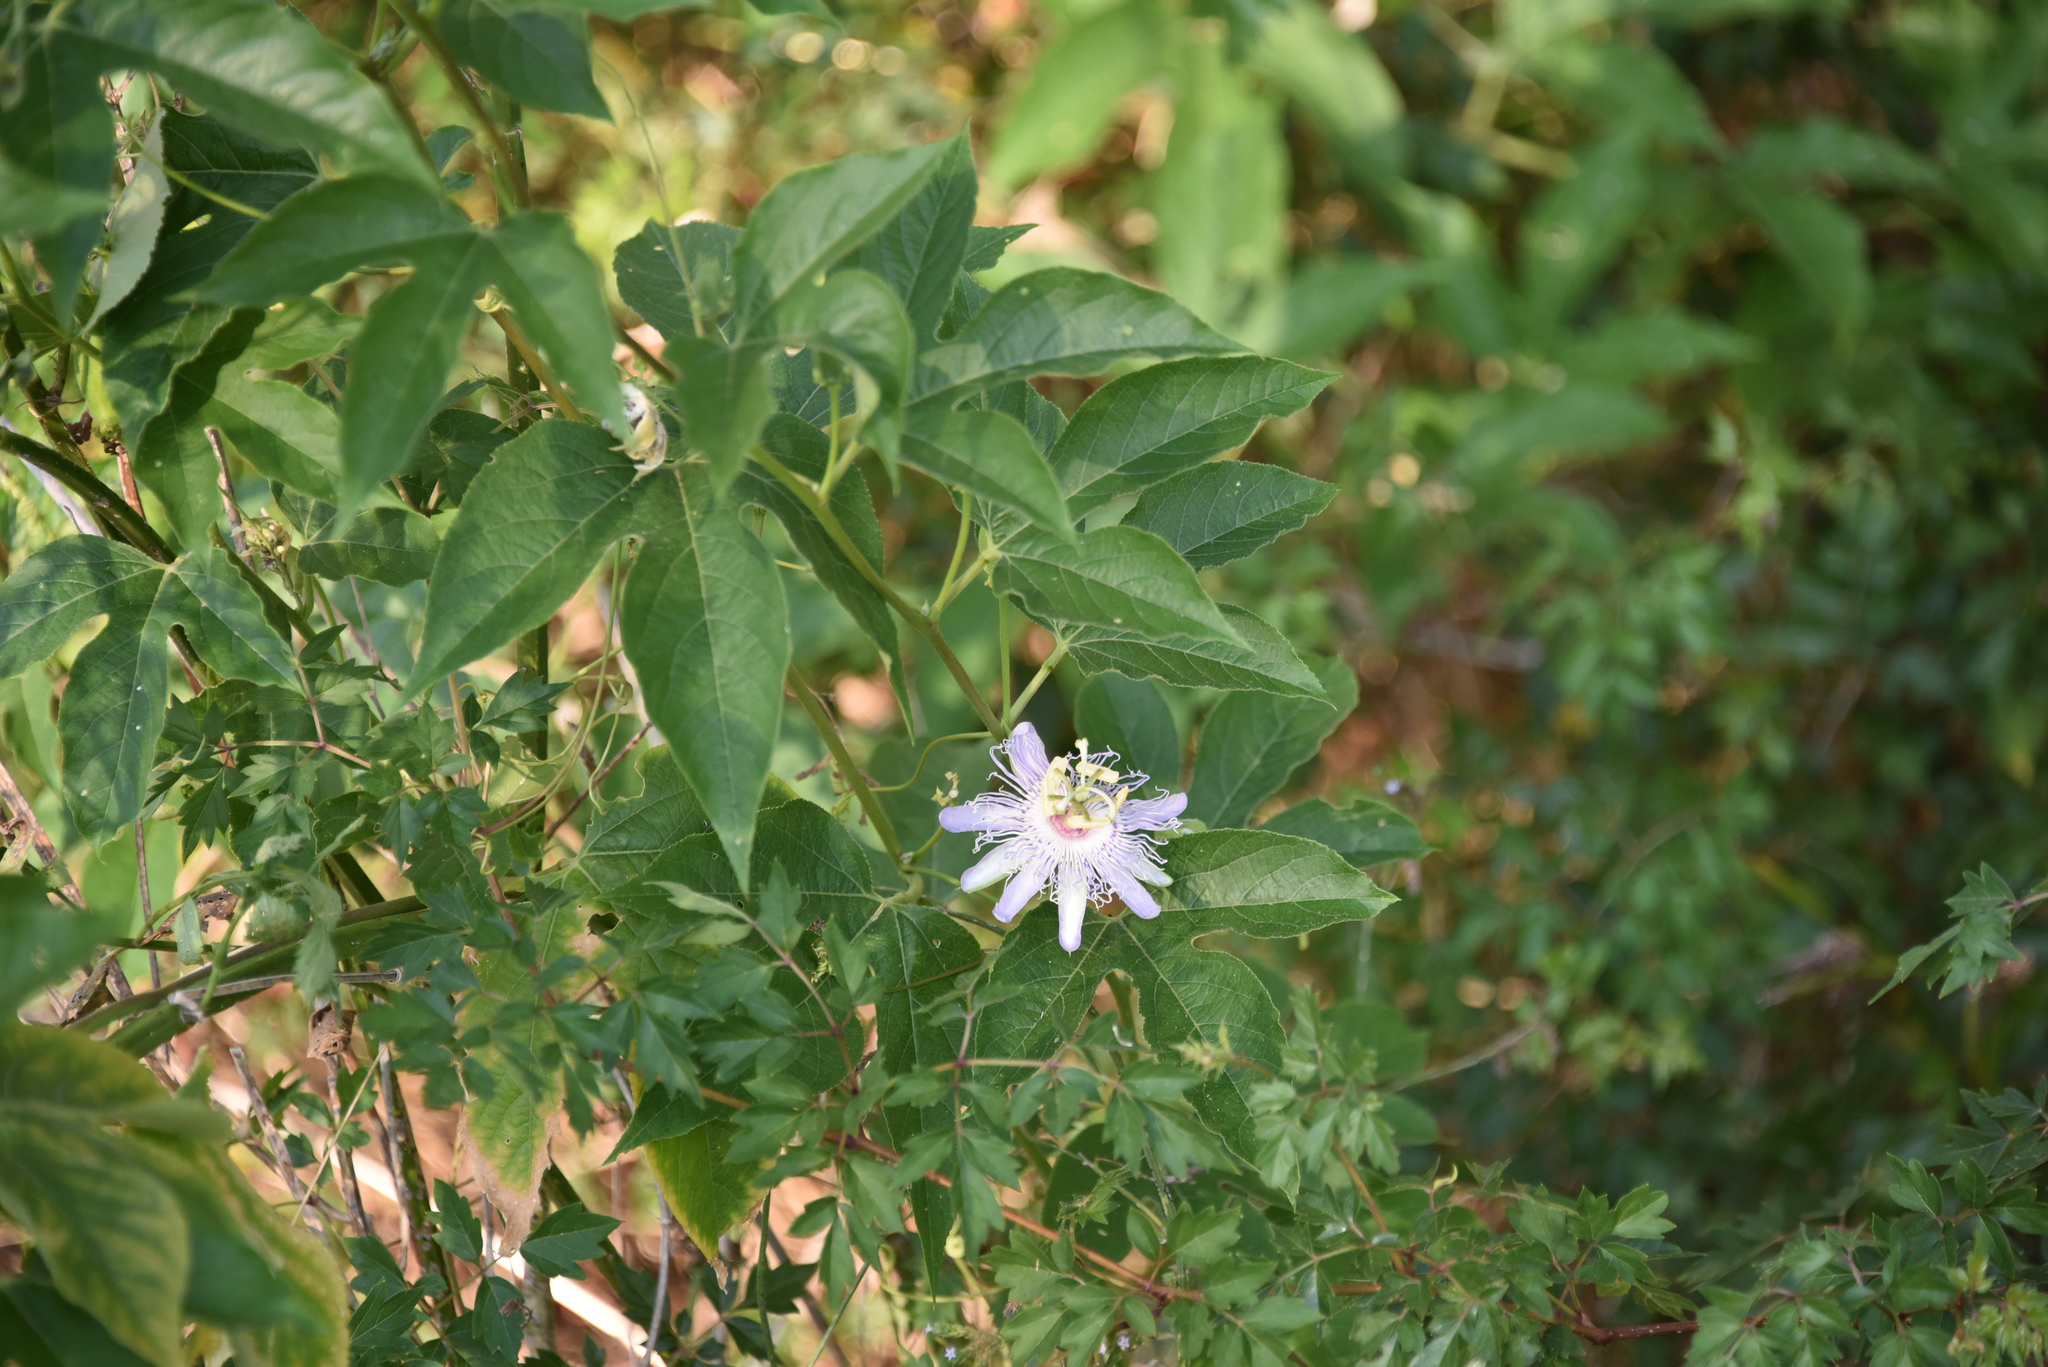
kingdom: Plantae
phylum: Tracheophyta
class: Magnoliopsida
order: Malpighiales
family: Passifloraceae
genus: Passiflora
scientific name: Passiflora incarnata
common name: Apricot-vine
